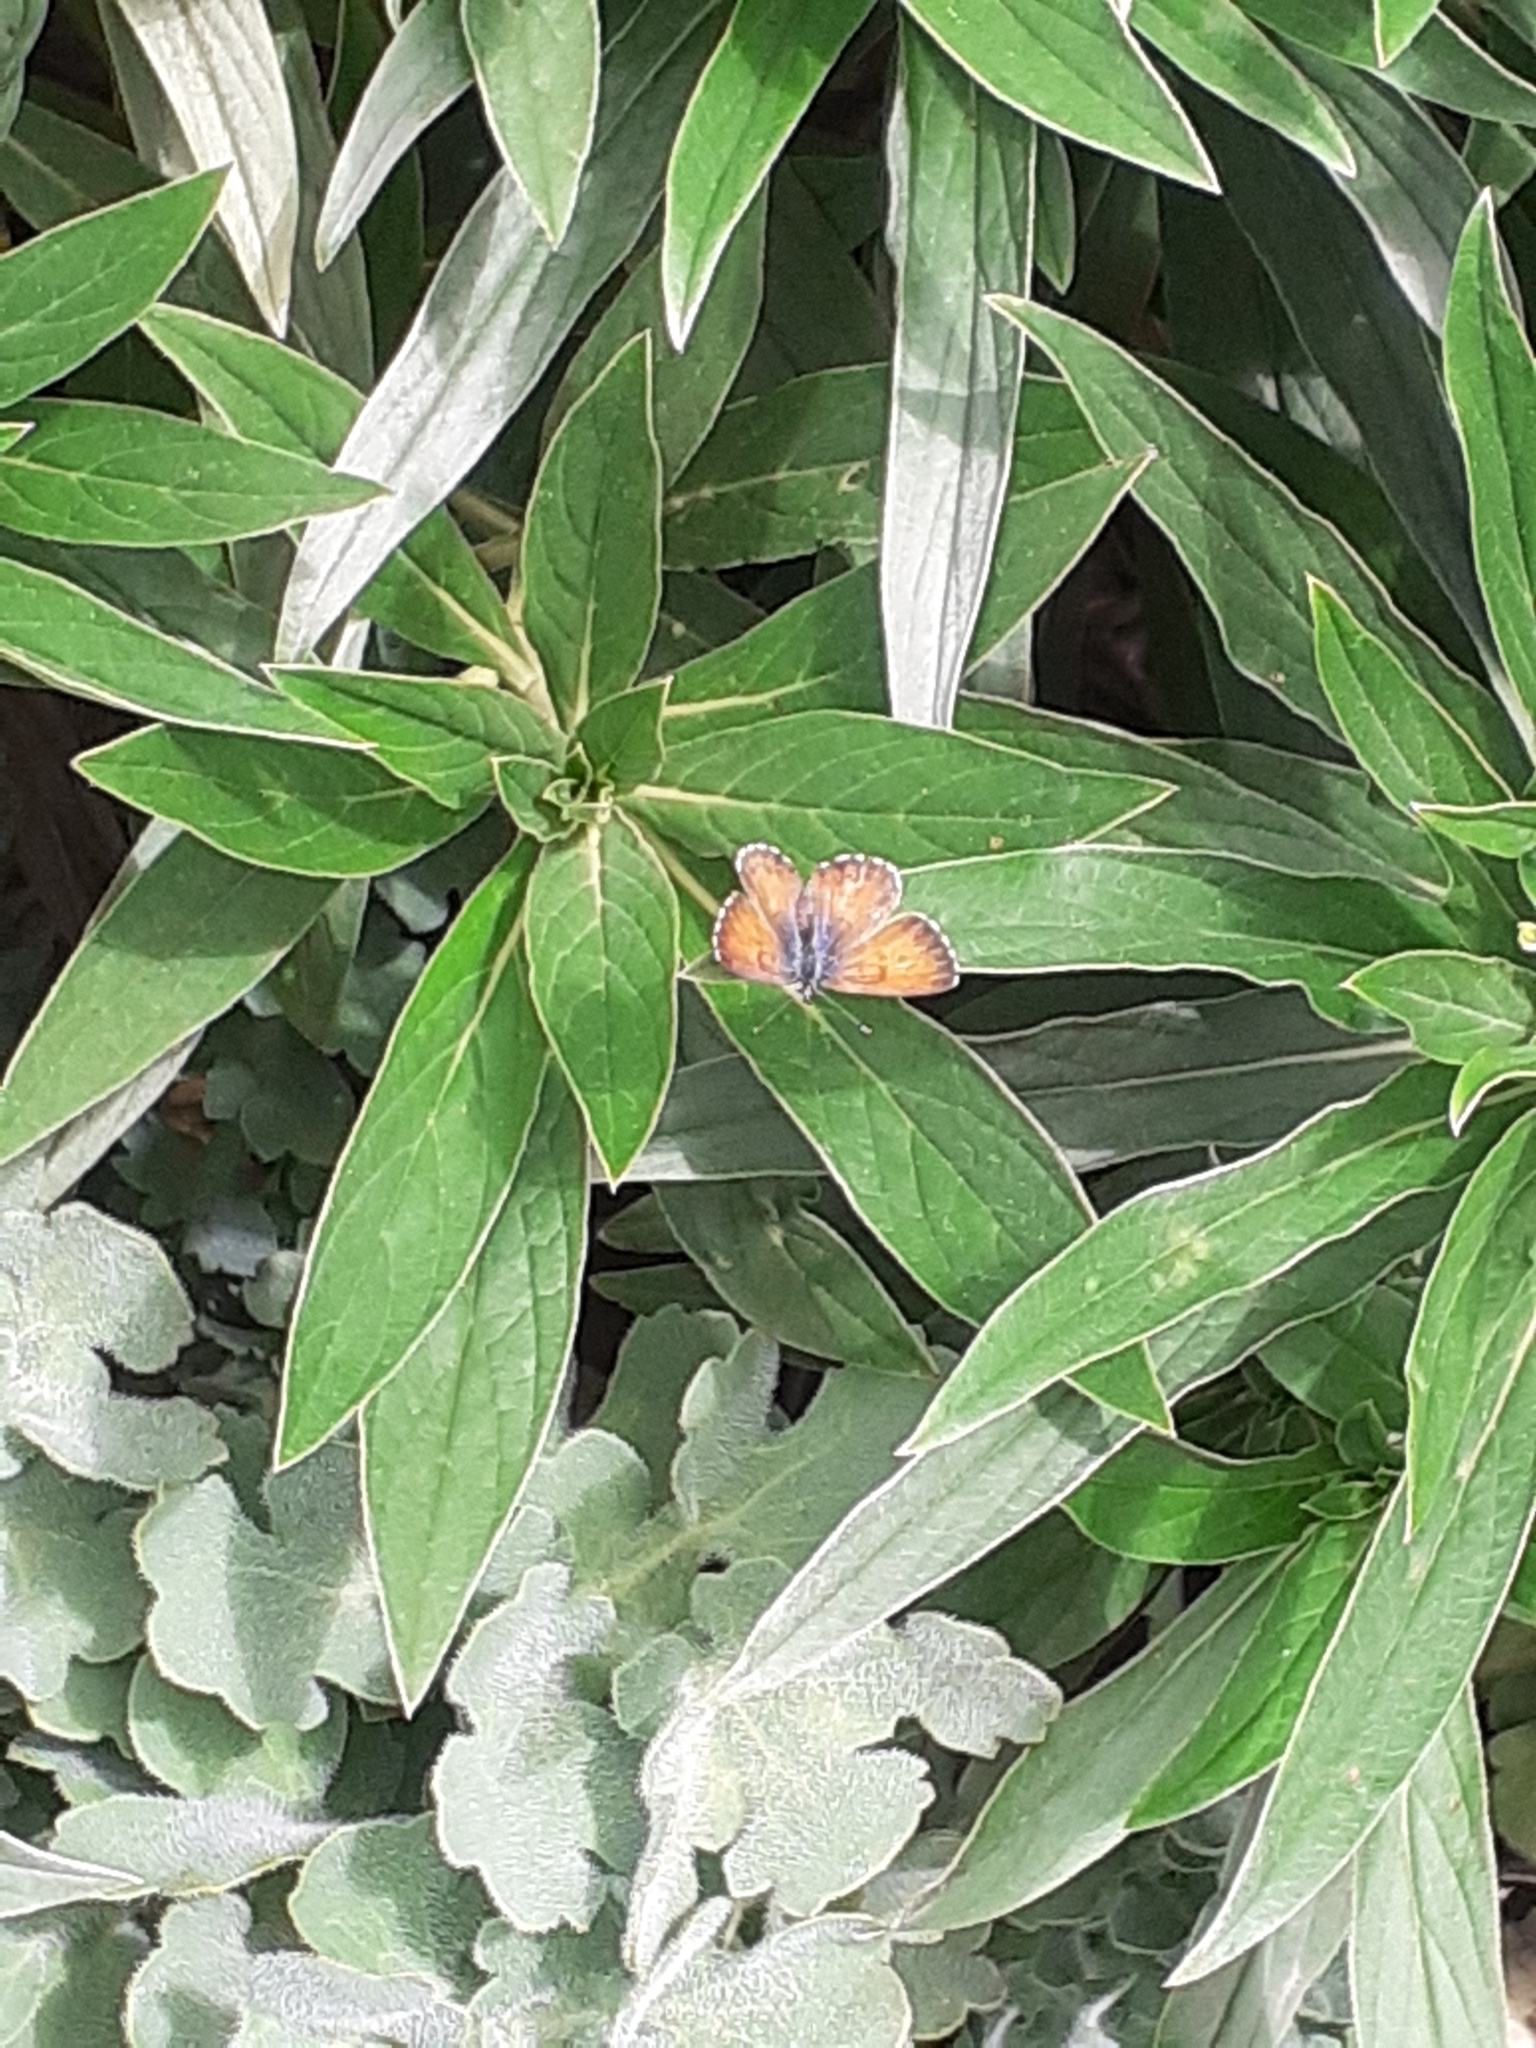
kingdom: Animalia
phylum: Arthropoda
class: Insecta
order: Lepidoptera
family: Lycaenidae
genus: Cyclyrius
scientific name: Cyclyrius webbianus
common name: Canary blue
